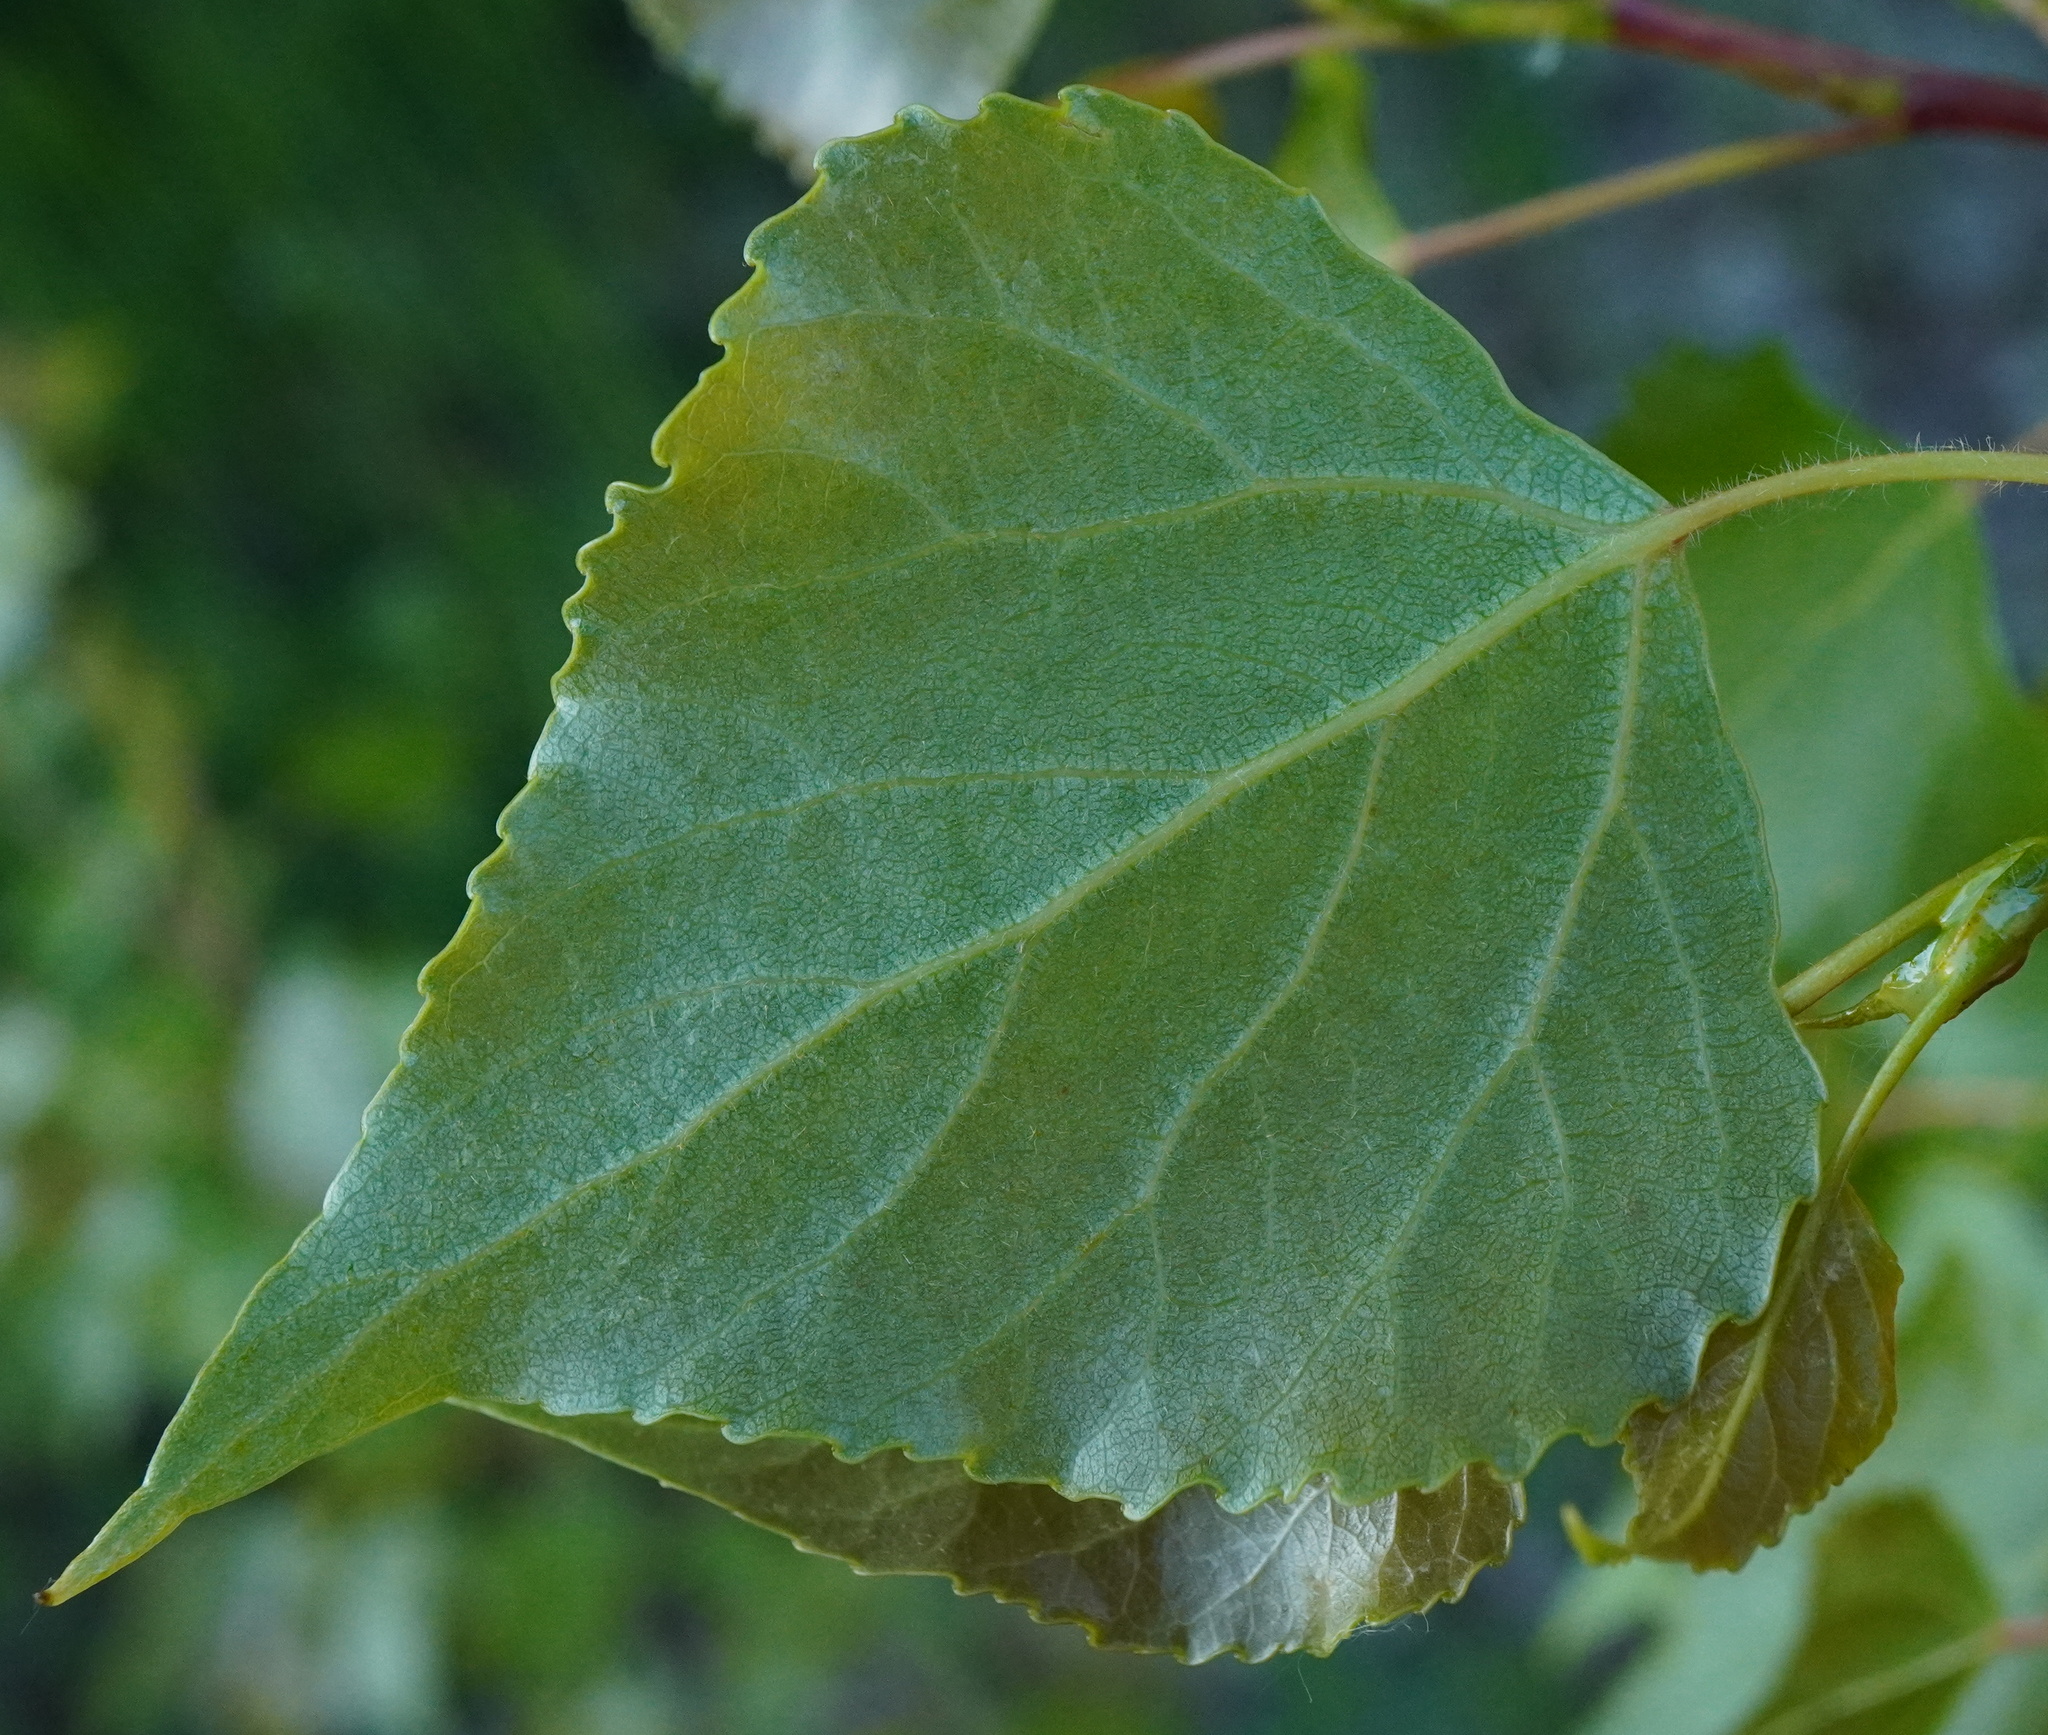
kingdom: Plantae
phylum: Tracheophyta
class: Magnoliopsida
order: Malpighiales
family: Salicaceae
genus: Populus
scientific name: Populus nigra
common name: Black poplar
